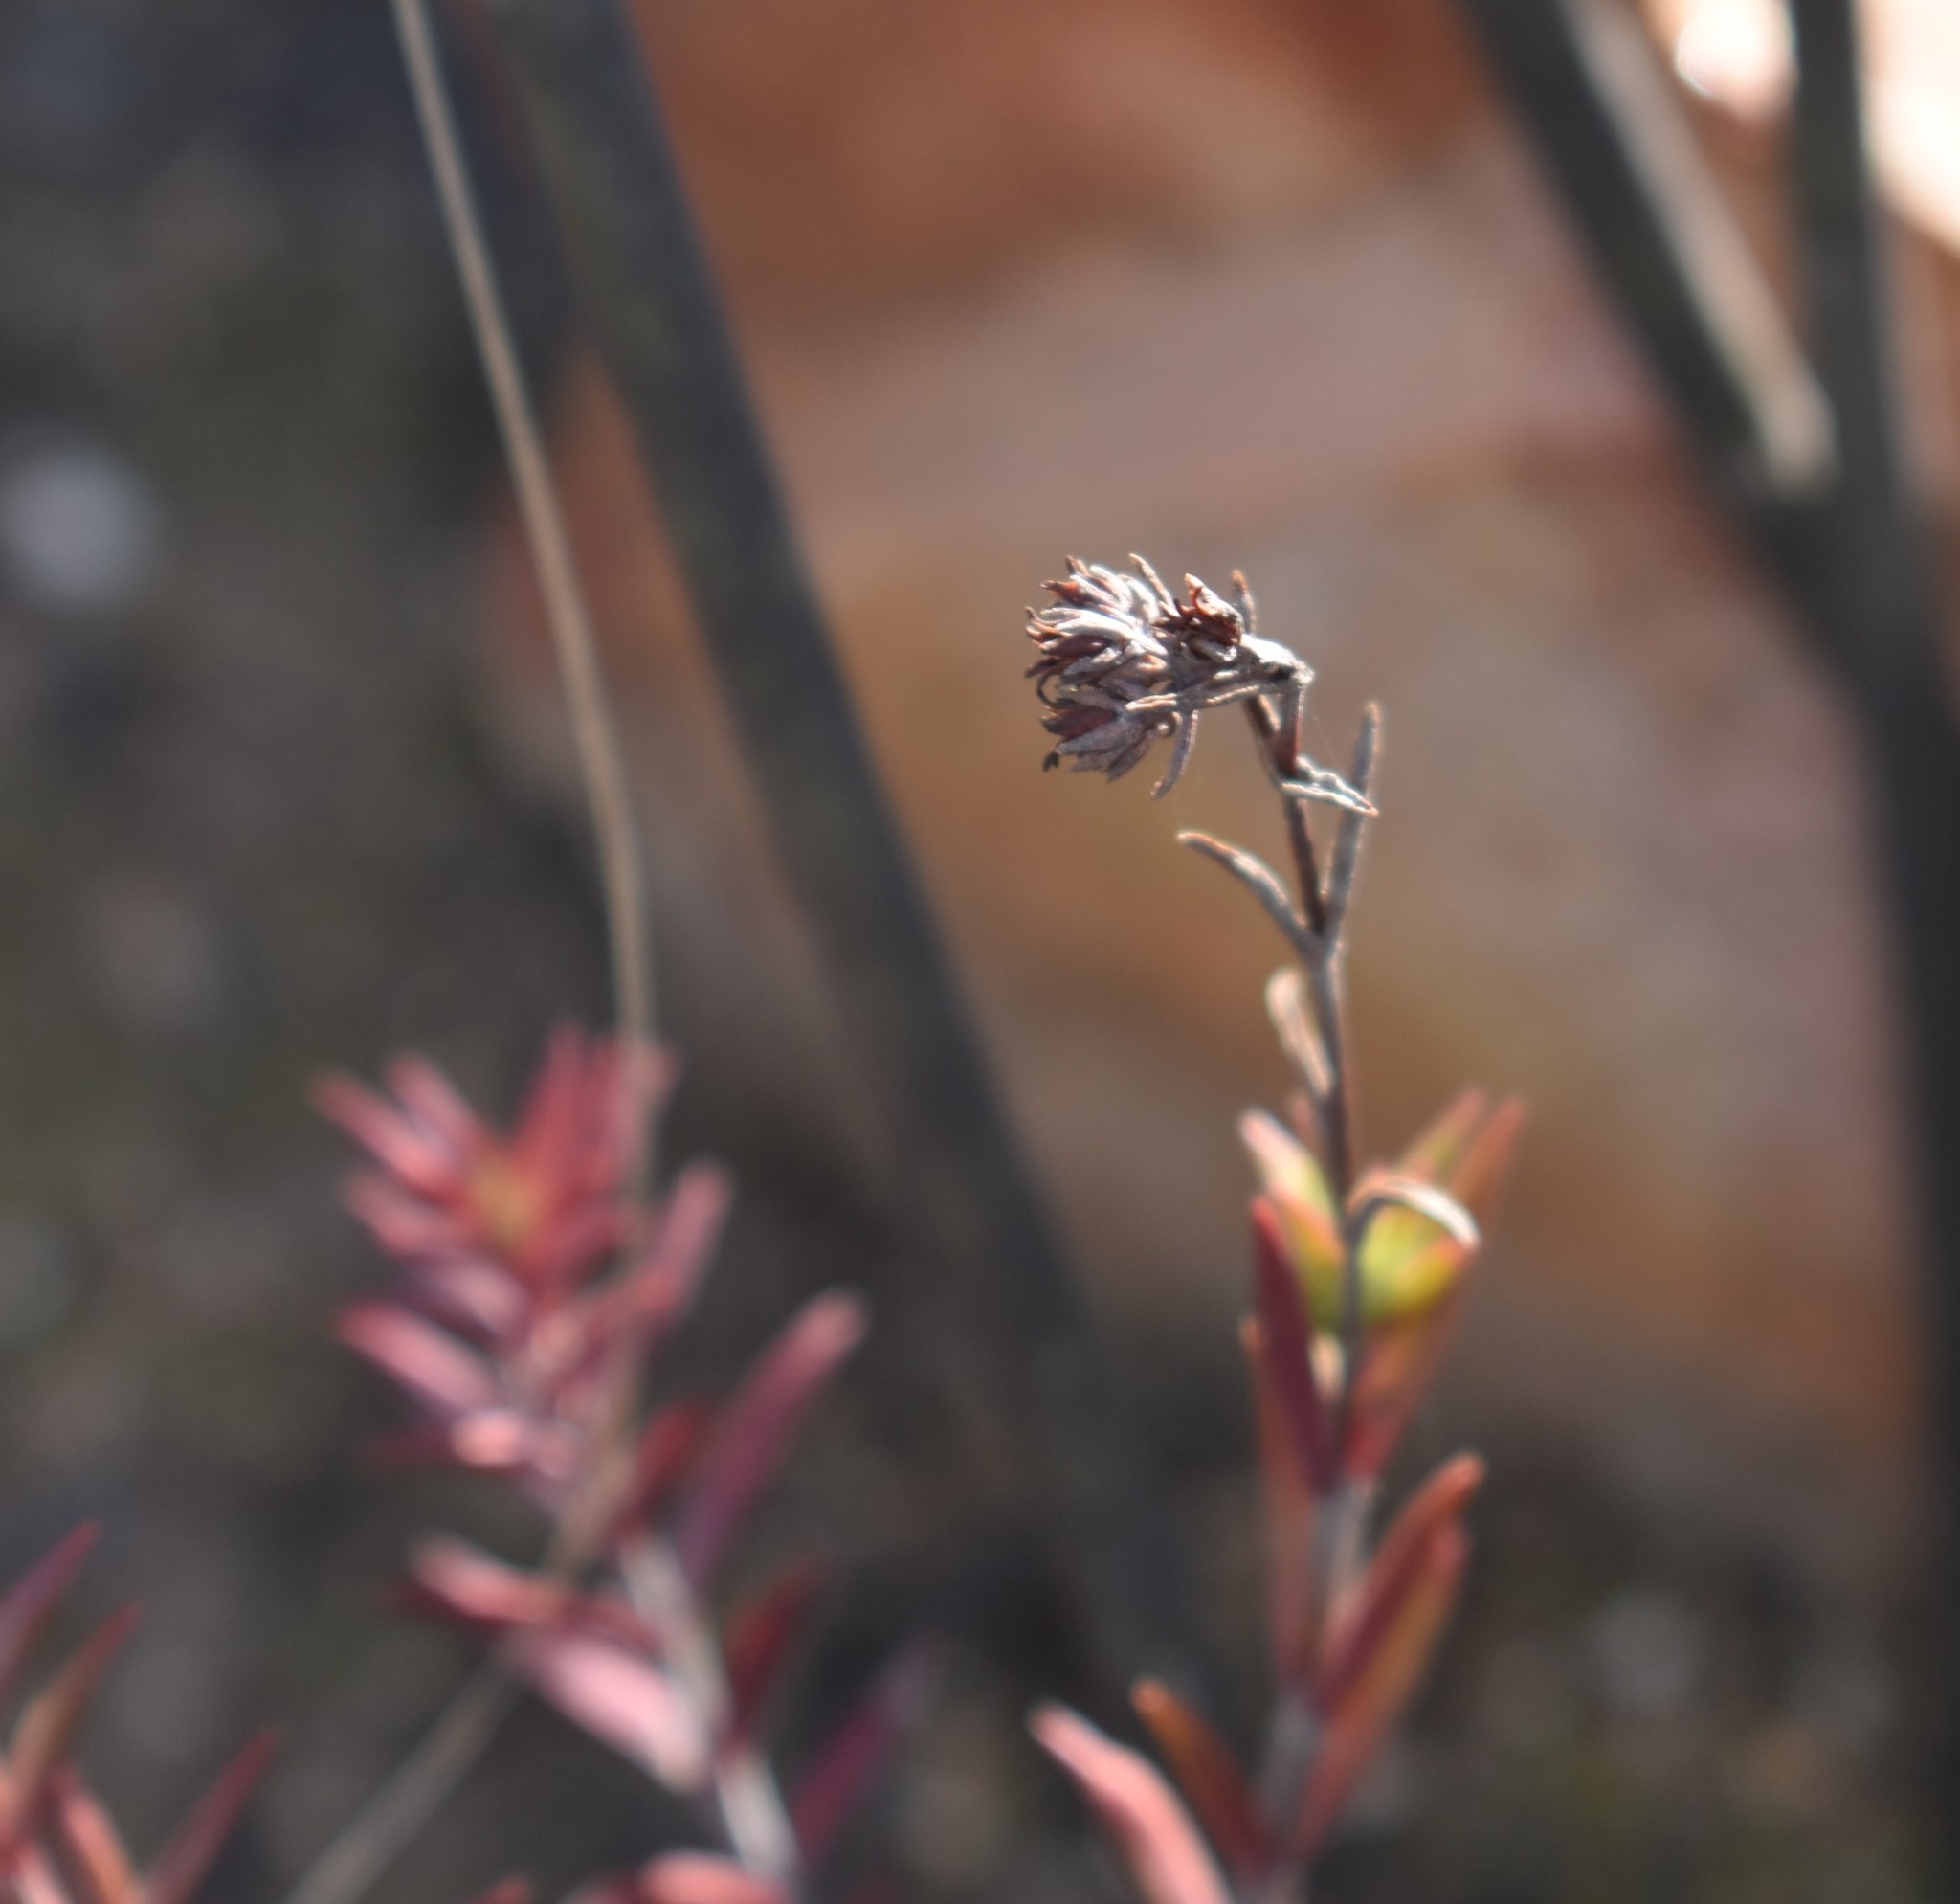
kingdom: Plantae
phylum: Tracheophyta
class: Magnoliopsida
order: Saxifragales
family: Crassulaceae
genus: Crassula
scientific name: Crassula subulata
